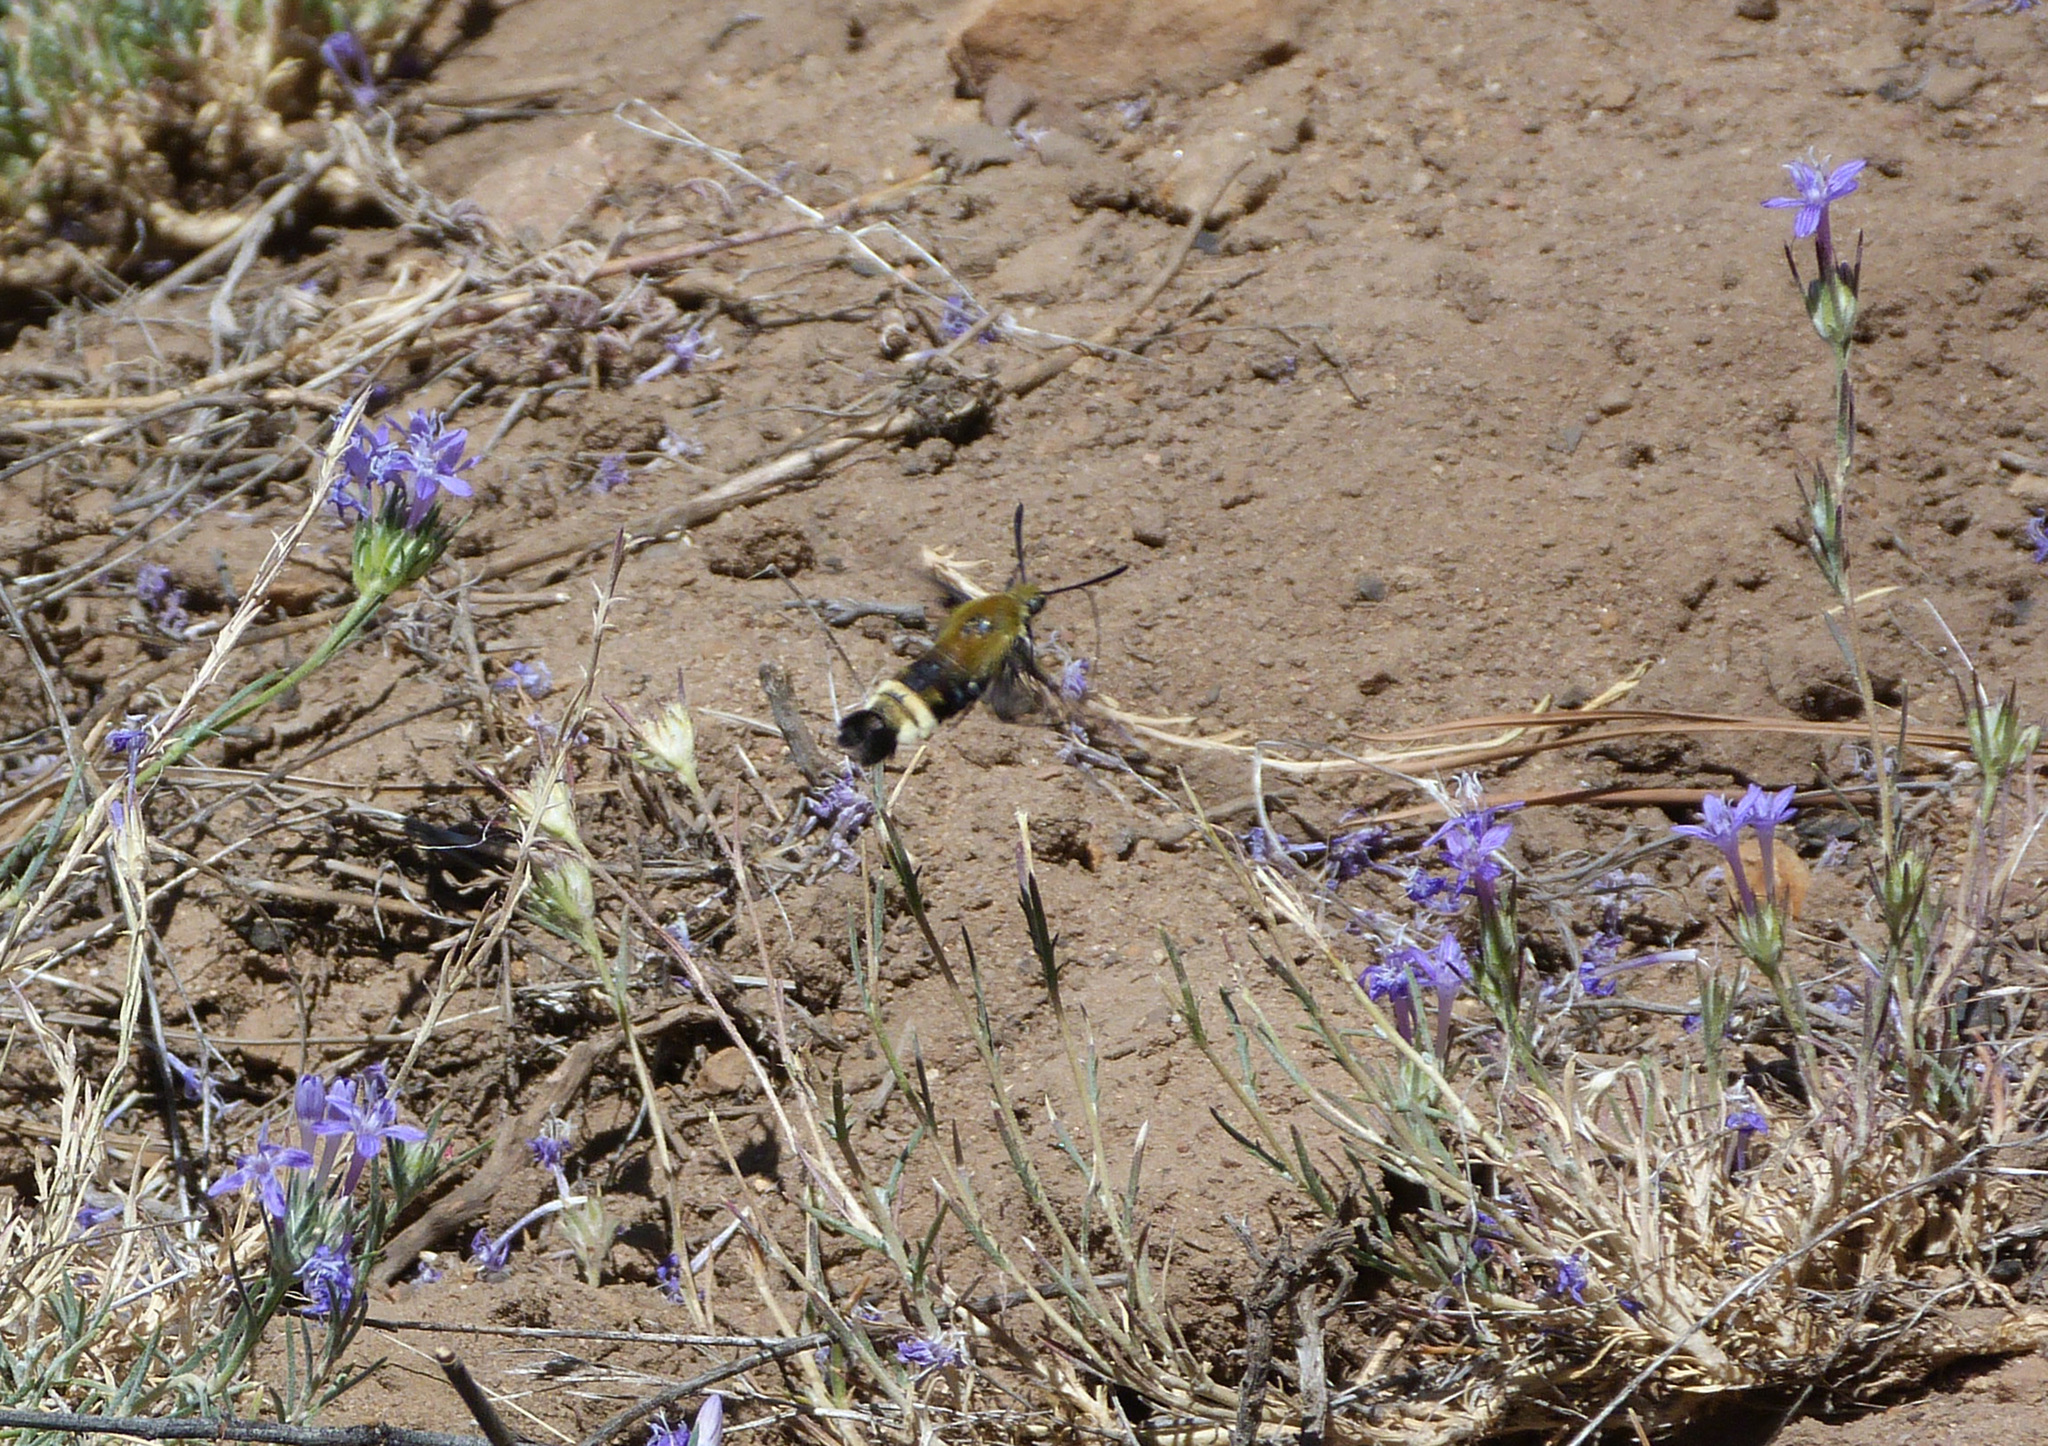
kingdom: Animalia
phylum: Arthropoda
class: Insecta
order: Lepidoptera
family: Sphingidae
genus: Hemaris
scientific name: Hemaris thetis
